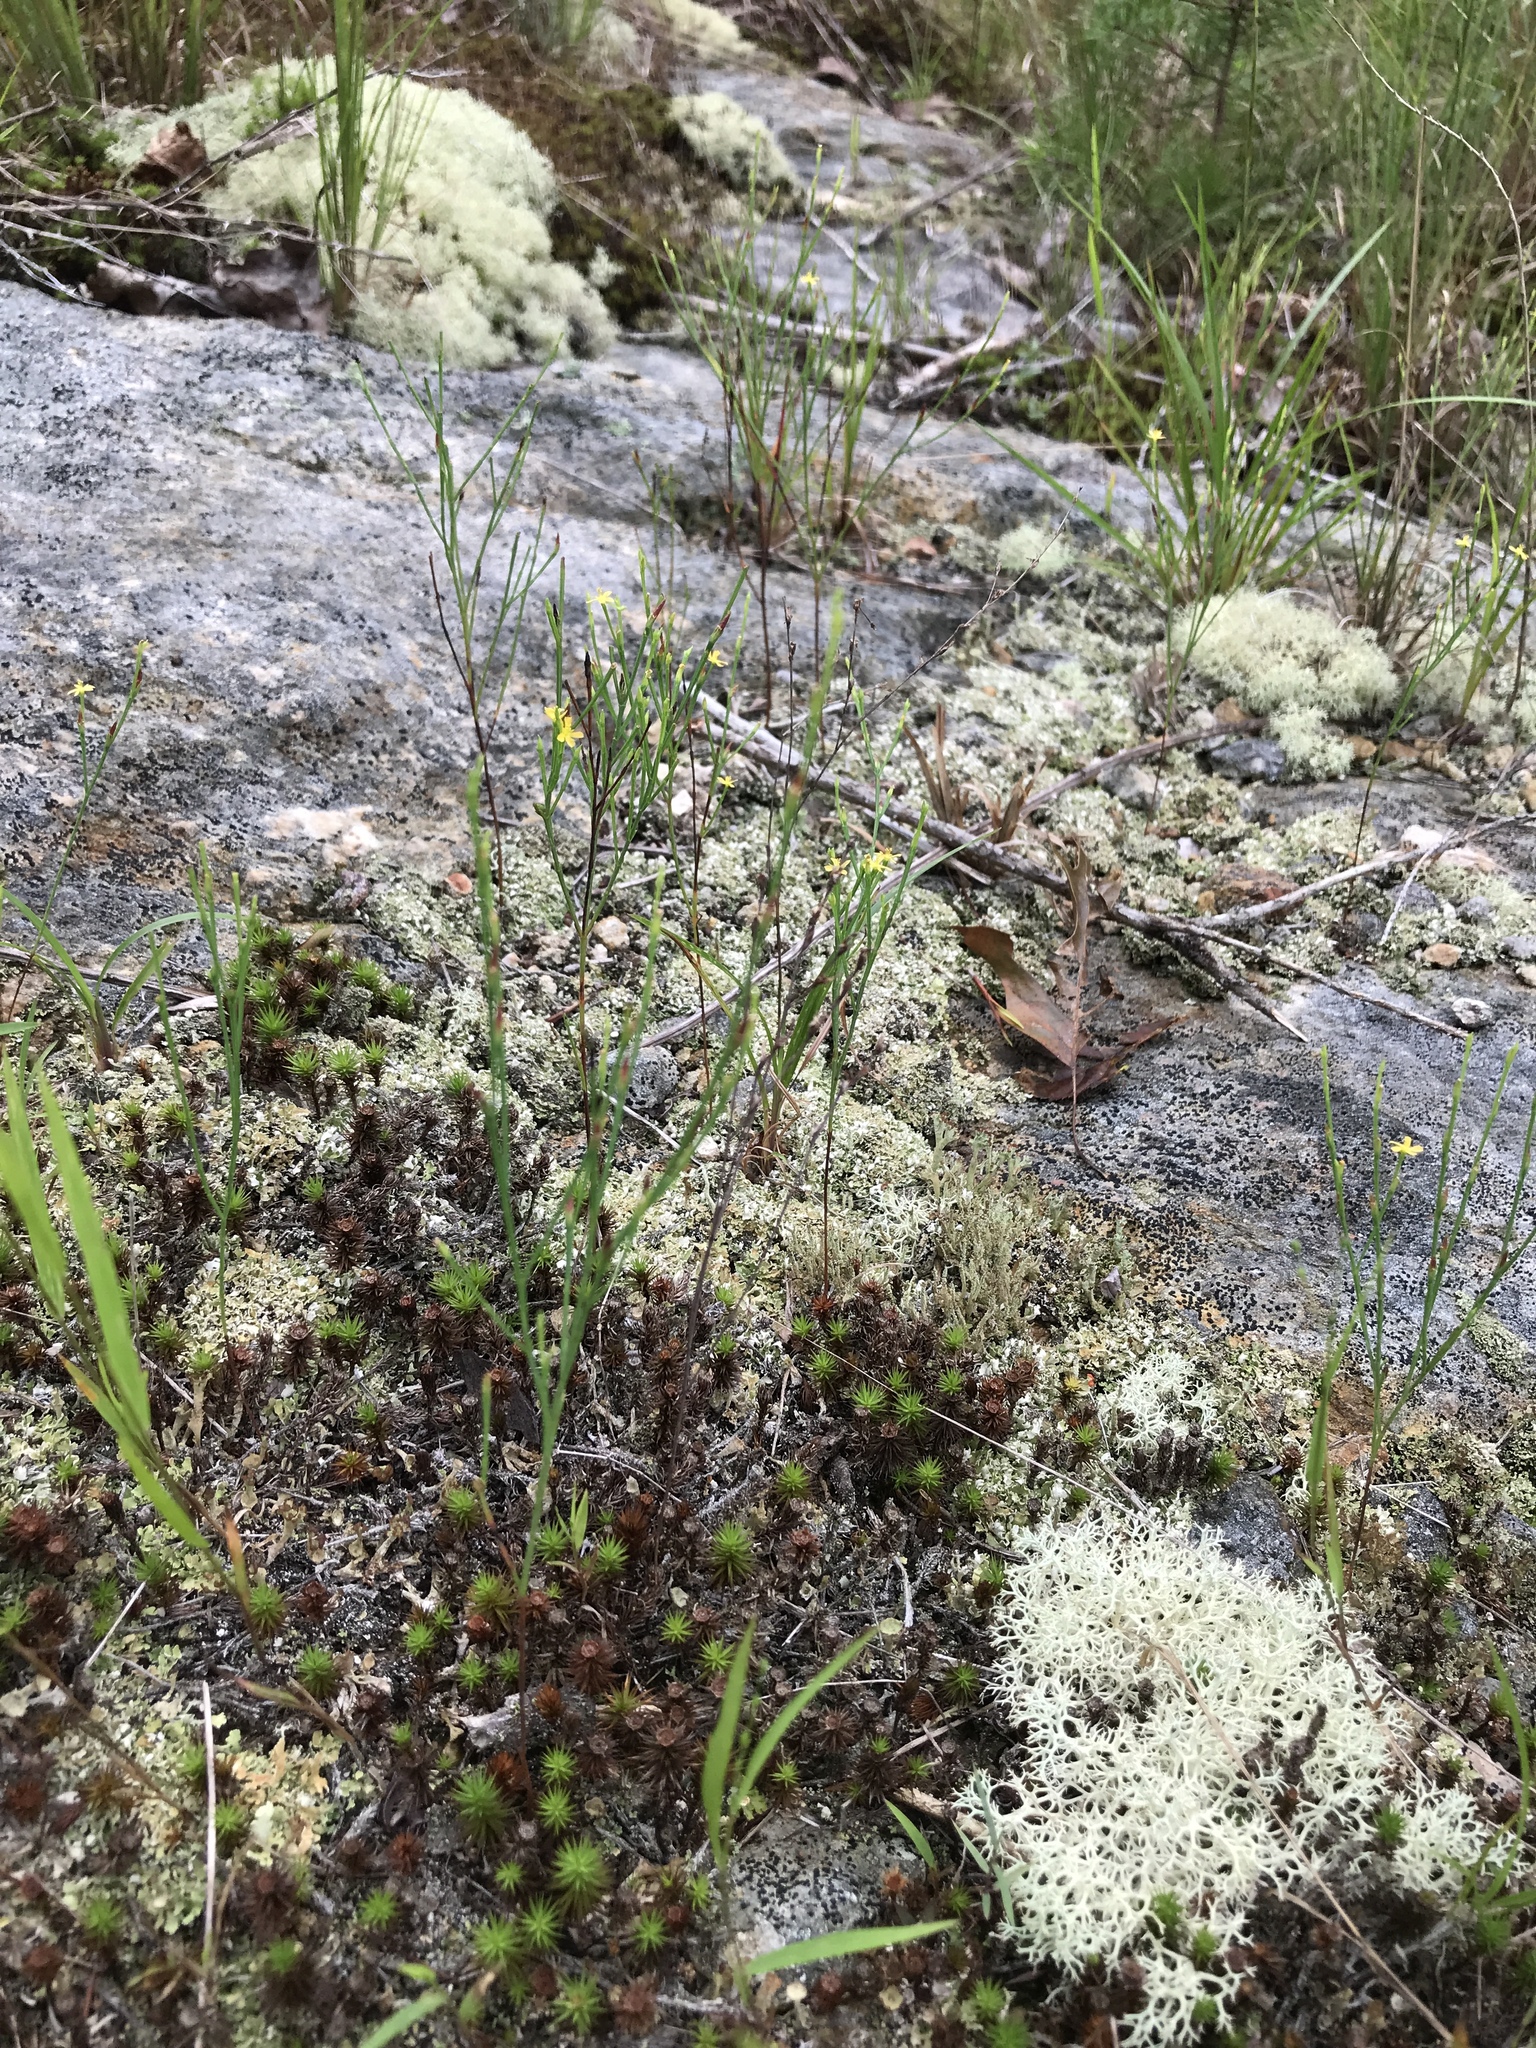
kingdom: Plantae
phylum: Tracheophyta
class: Magnoliopsida
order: Malpighiales
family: Hypericaceae
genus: Hypericum
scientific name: Hypericum gentianoides
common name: Gentian-leaved st. john's-wort
